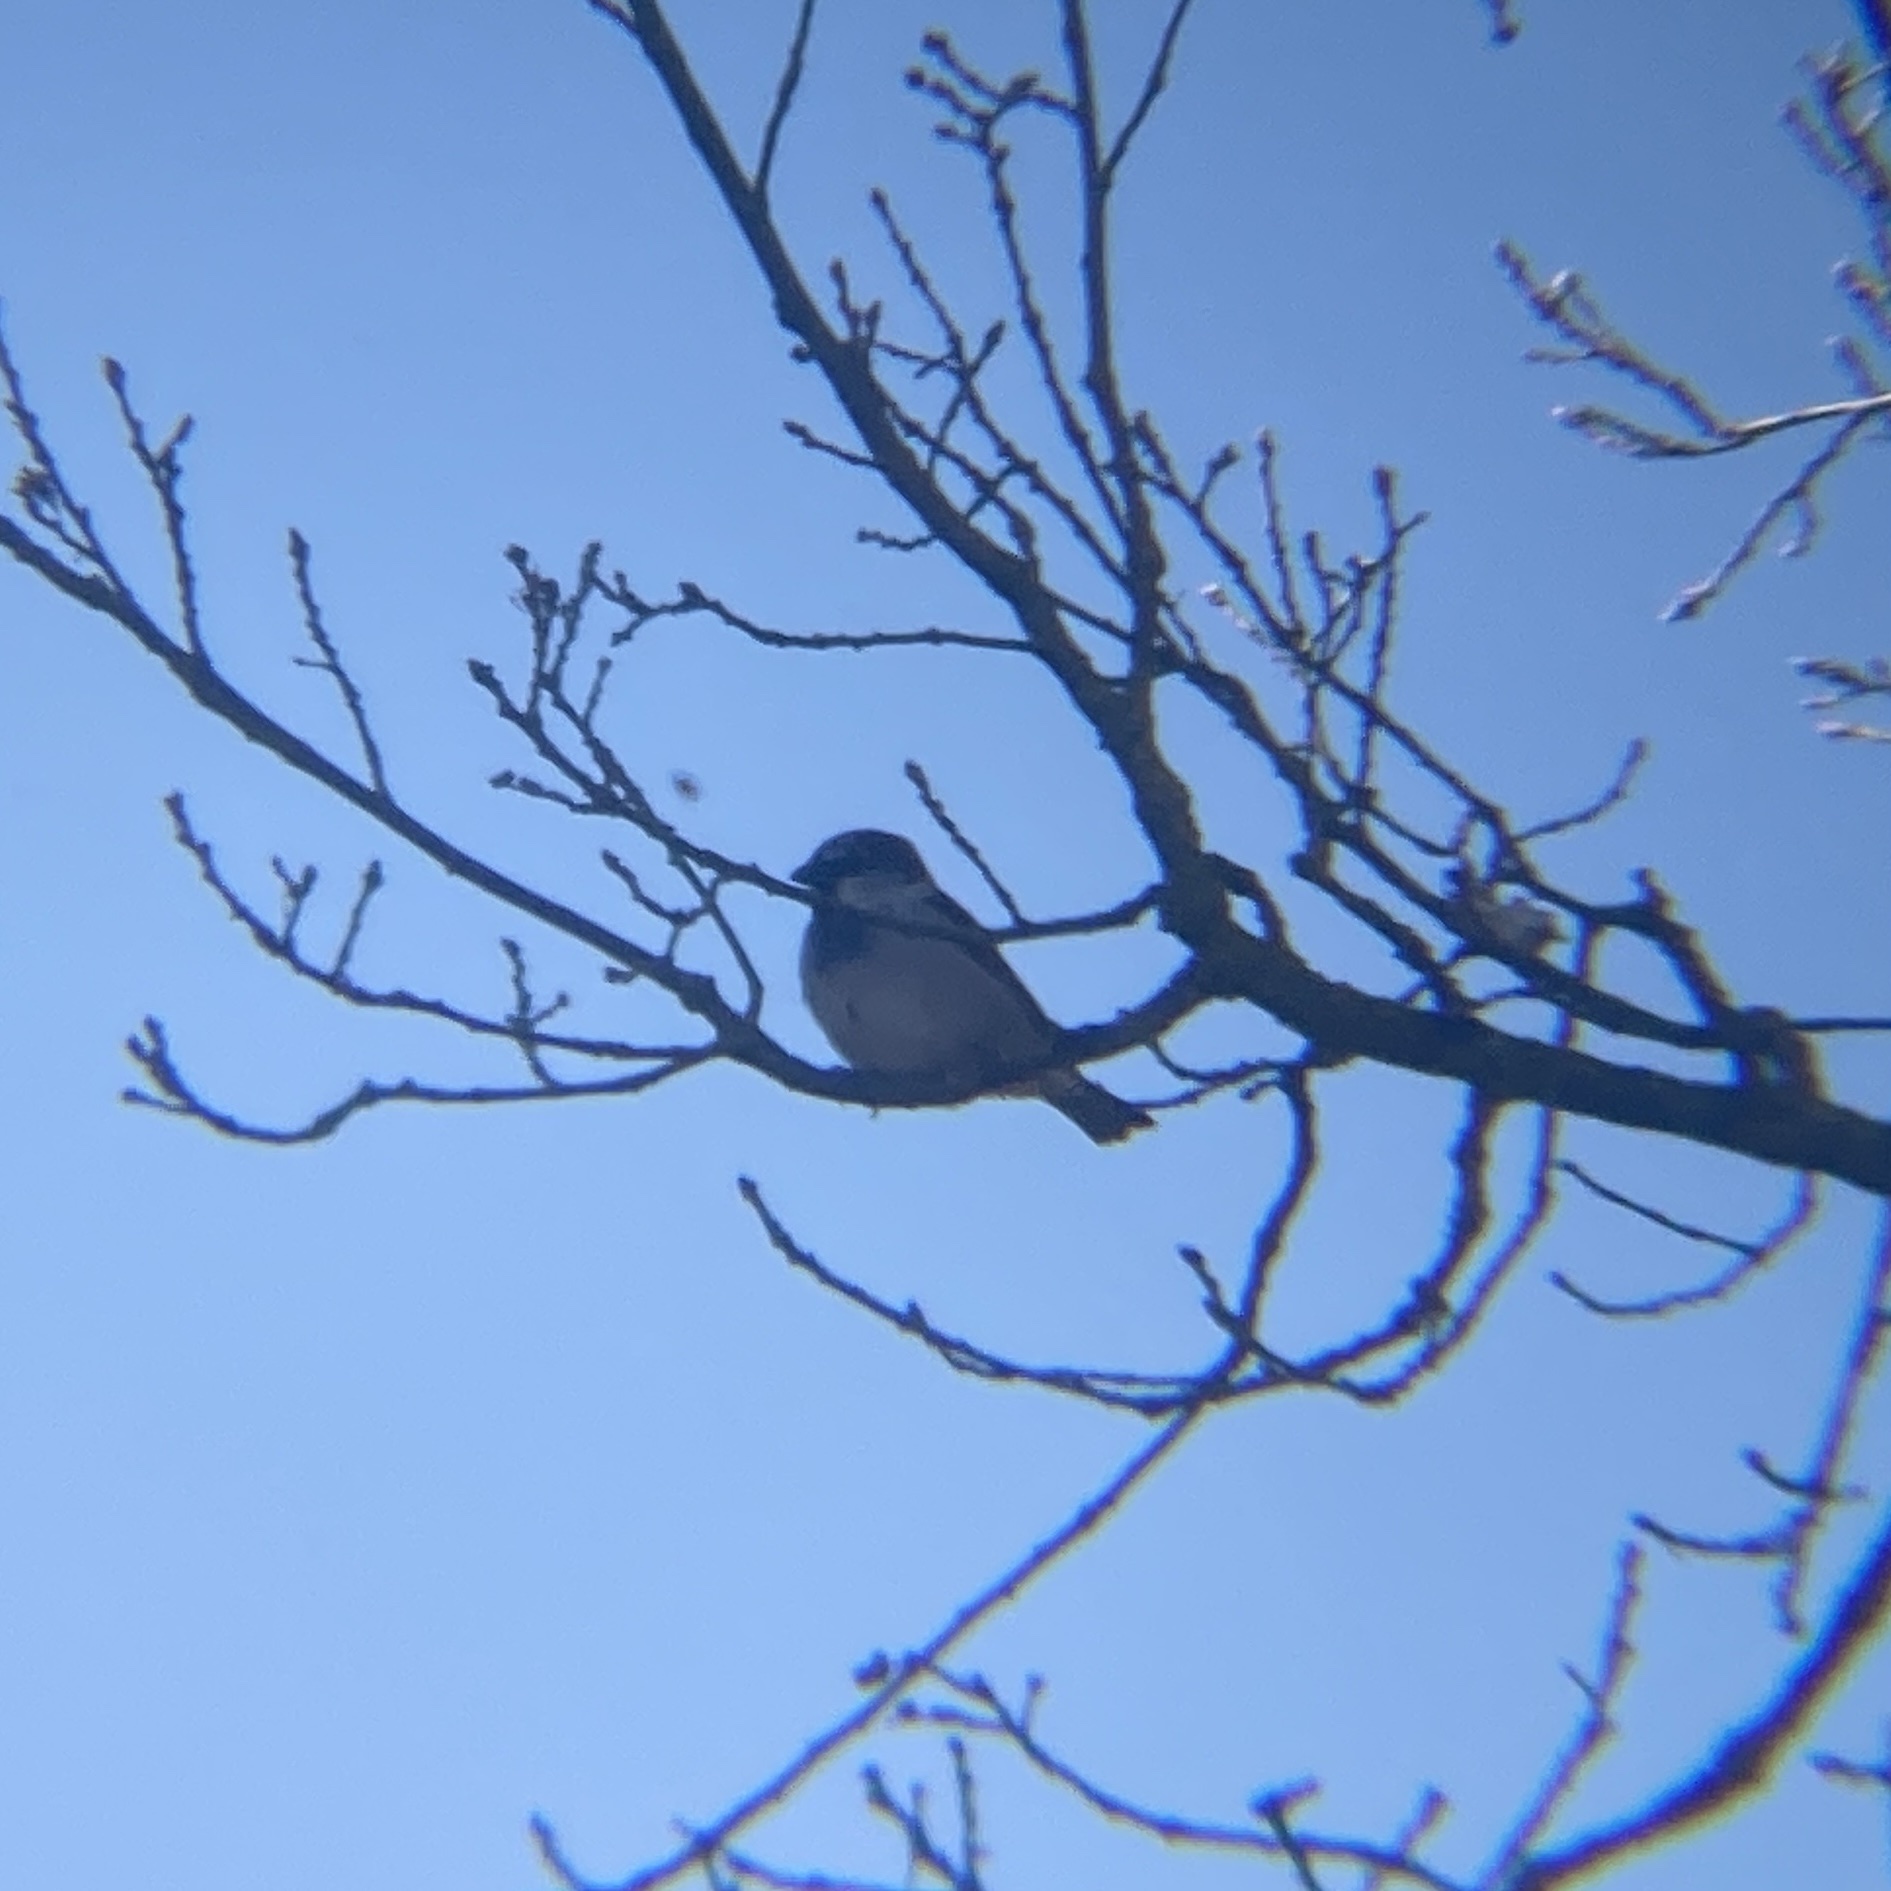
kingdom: Animalia
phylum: Chordata
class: Aves
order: Passeriformes
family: Passeridae
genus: Passer
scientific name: Passer domesticus
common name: House sparrow
